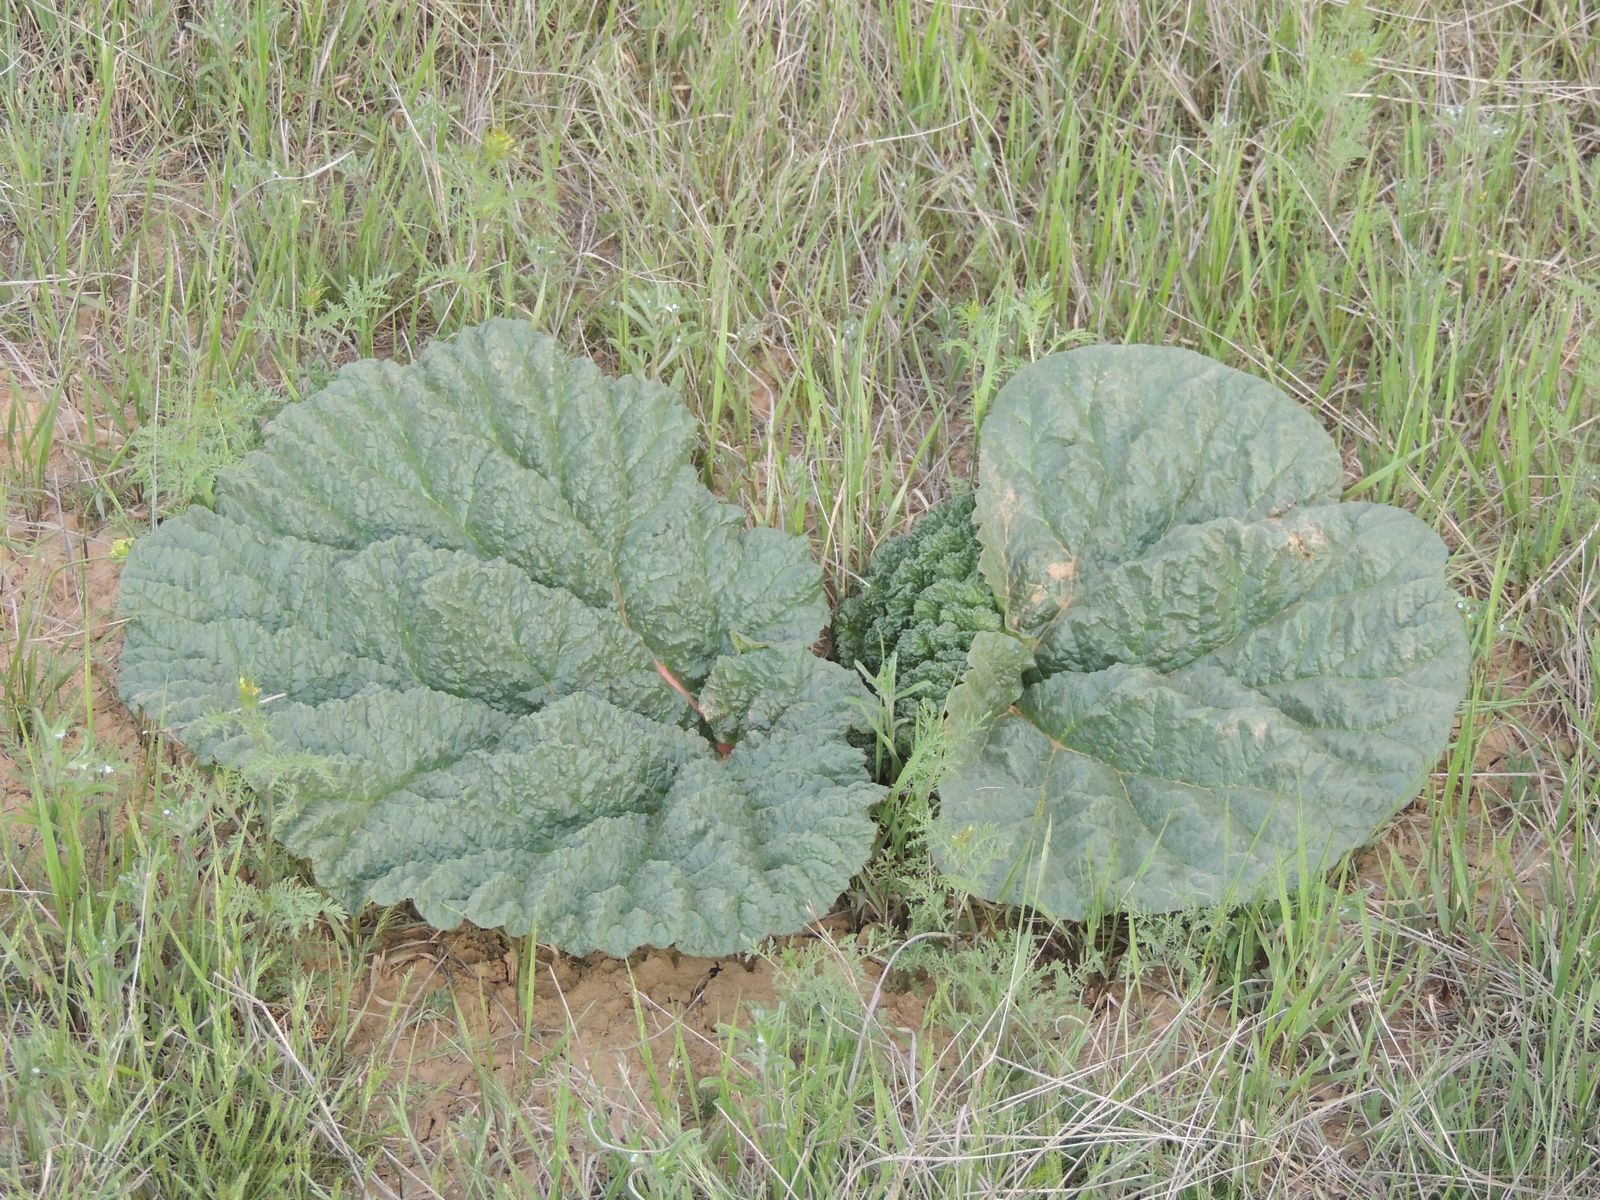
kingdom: Plantae
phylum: Tracheophyta
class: Magnoliopsida
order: Caryophyllales
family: Polygonaceae
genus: Rheum
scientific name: Rheum tataricum
